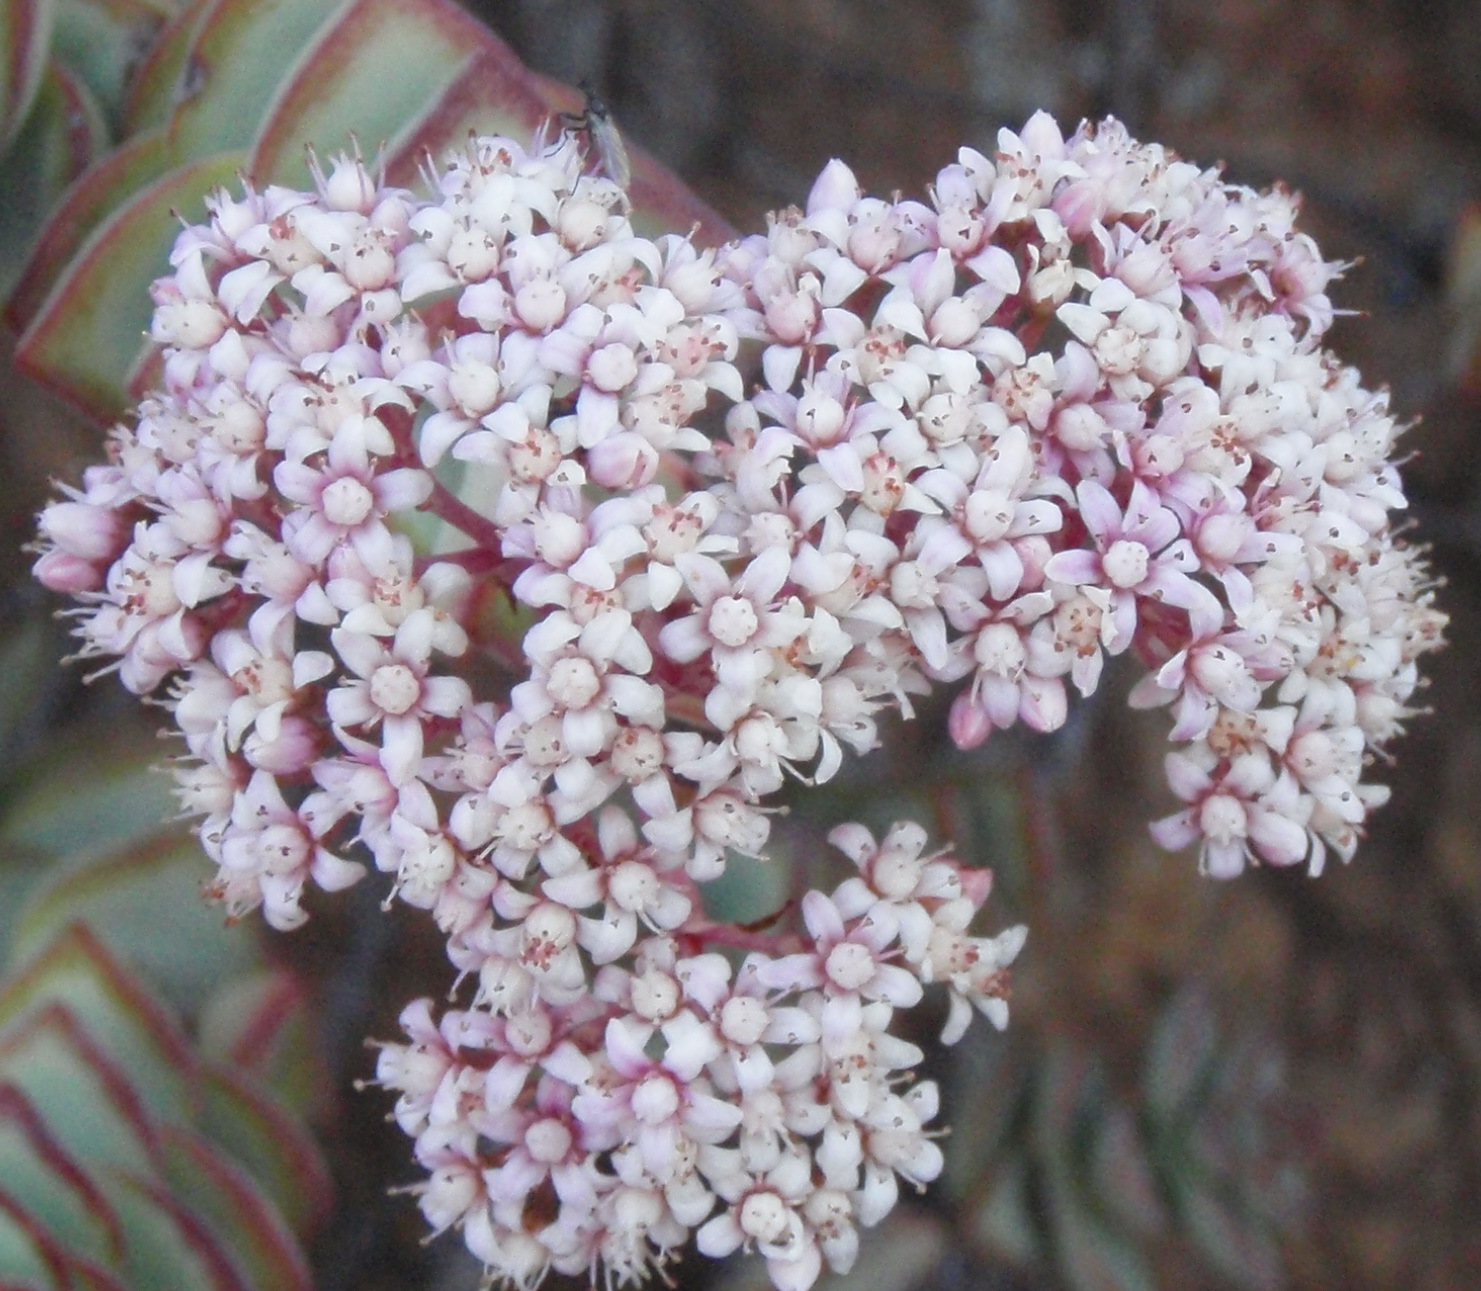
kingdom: Plantae
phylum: Tracheophyta
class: Magnoliopsida
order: Saxifragales
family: Crassulaceae
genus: Crassula
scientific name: Crassula rupestris
